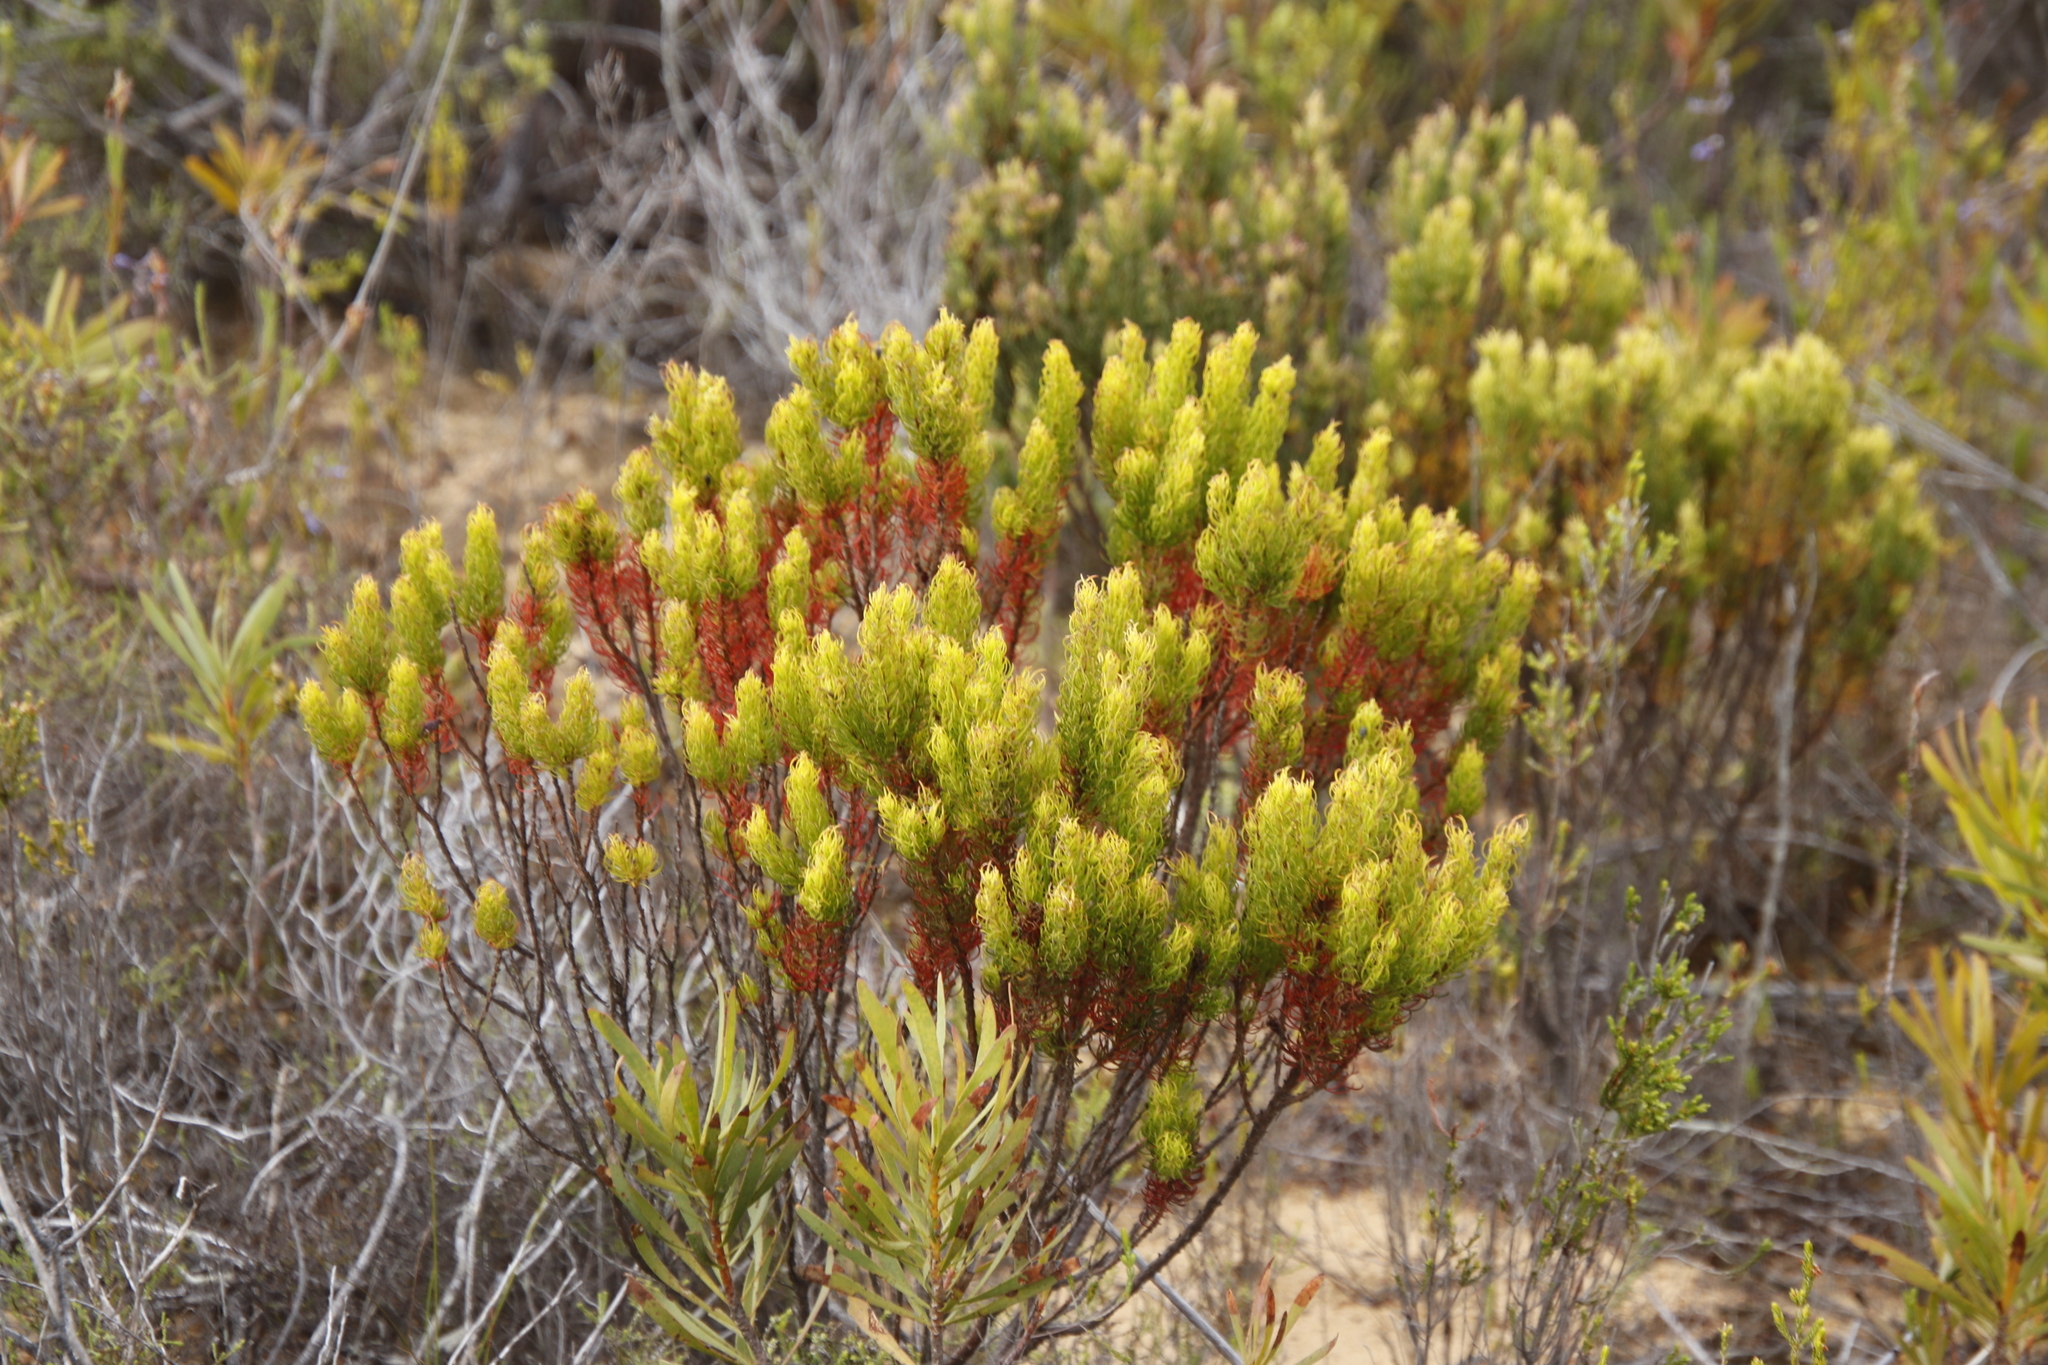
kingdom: Plantae
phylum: Tracheophyta
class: Magnoliopsida
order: Ericales
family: Ericaceae
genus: Erica
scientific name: Erica plukenetii
